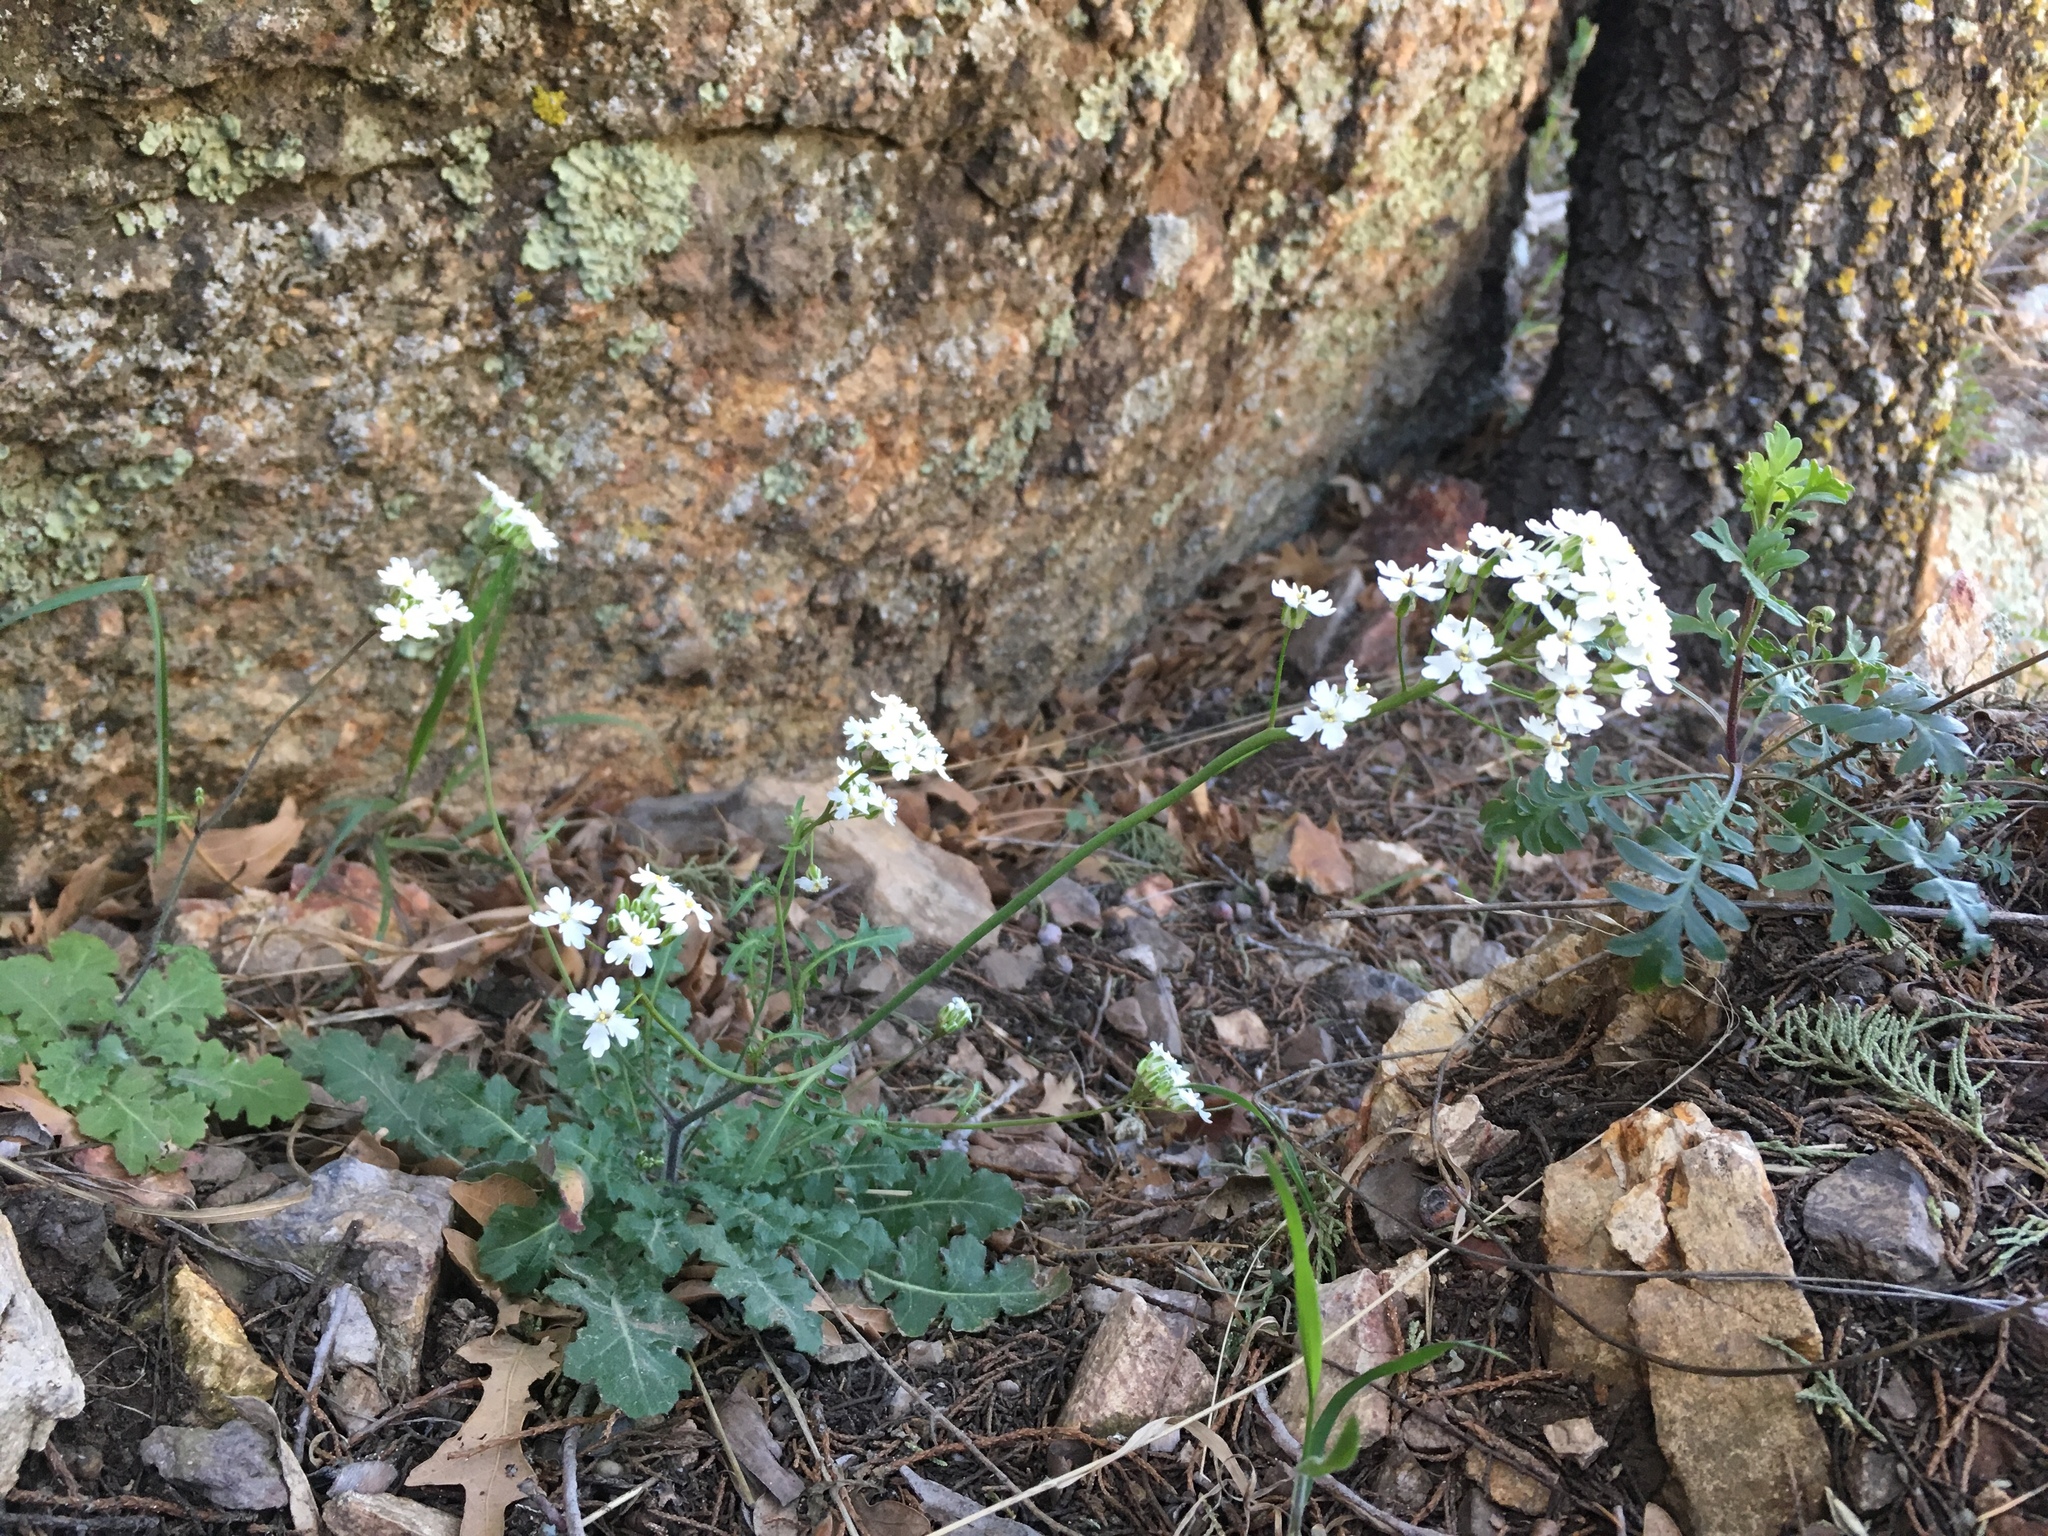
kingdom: Plantae
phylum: Tracheophyta
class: Magnoliopsida
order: Brassicales
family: Brassicaceae
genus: Dryopetalon
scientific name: Dryopetalon runcinatum
